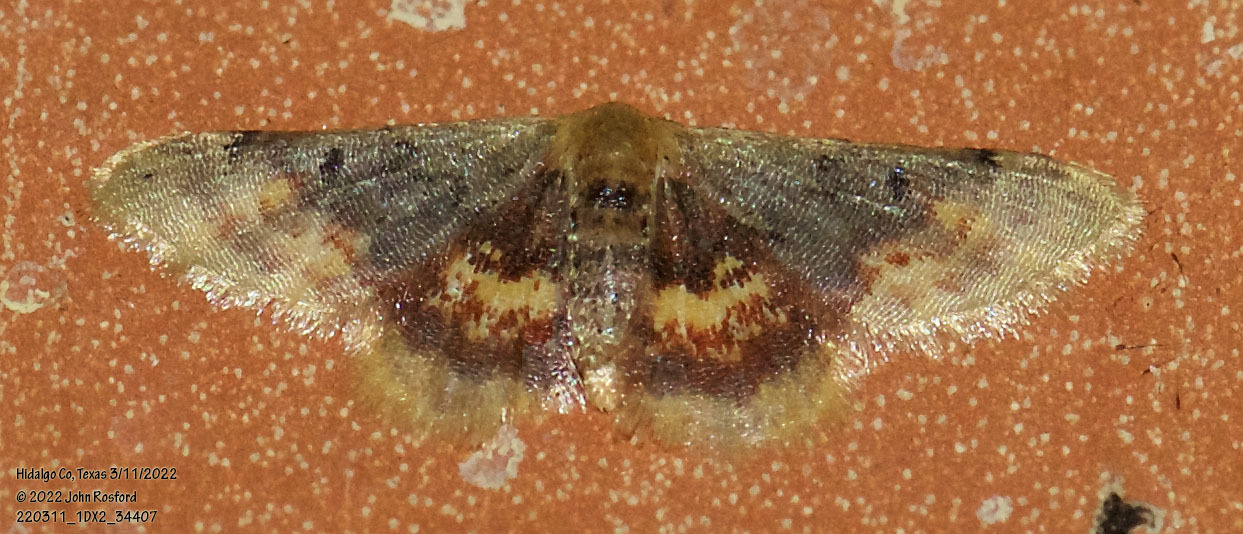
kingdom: Animalia
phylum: Arthropoda
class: Insecta
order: Lepidoptera
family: Geometridae
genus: Idaea
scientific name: Idaea scintillularia
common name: Diminutive wave
